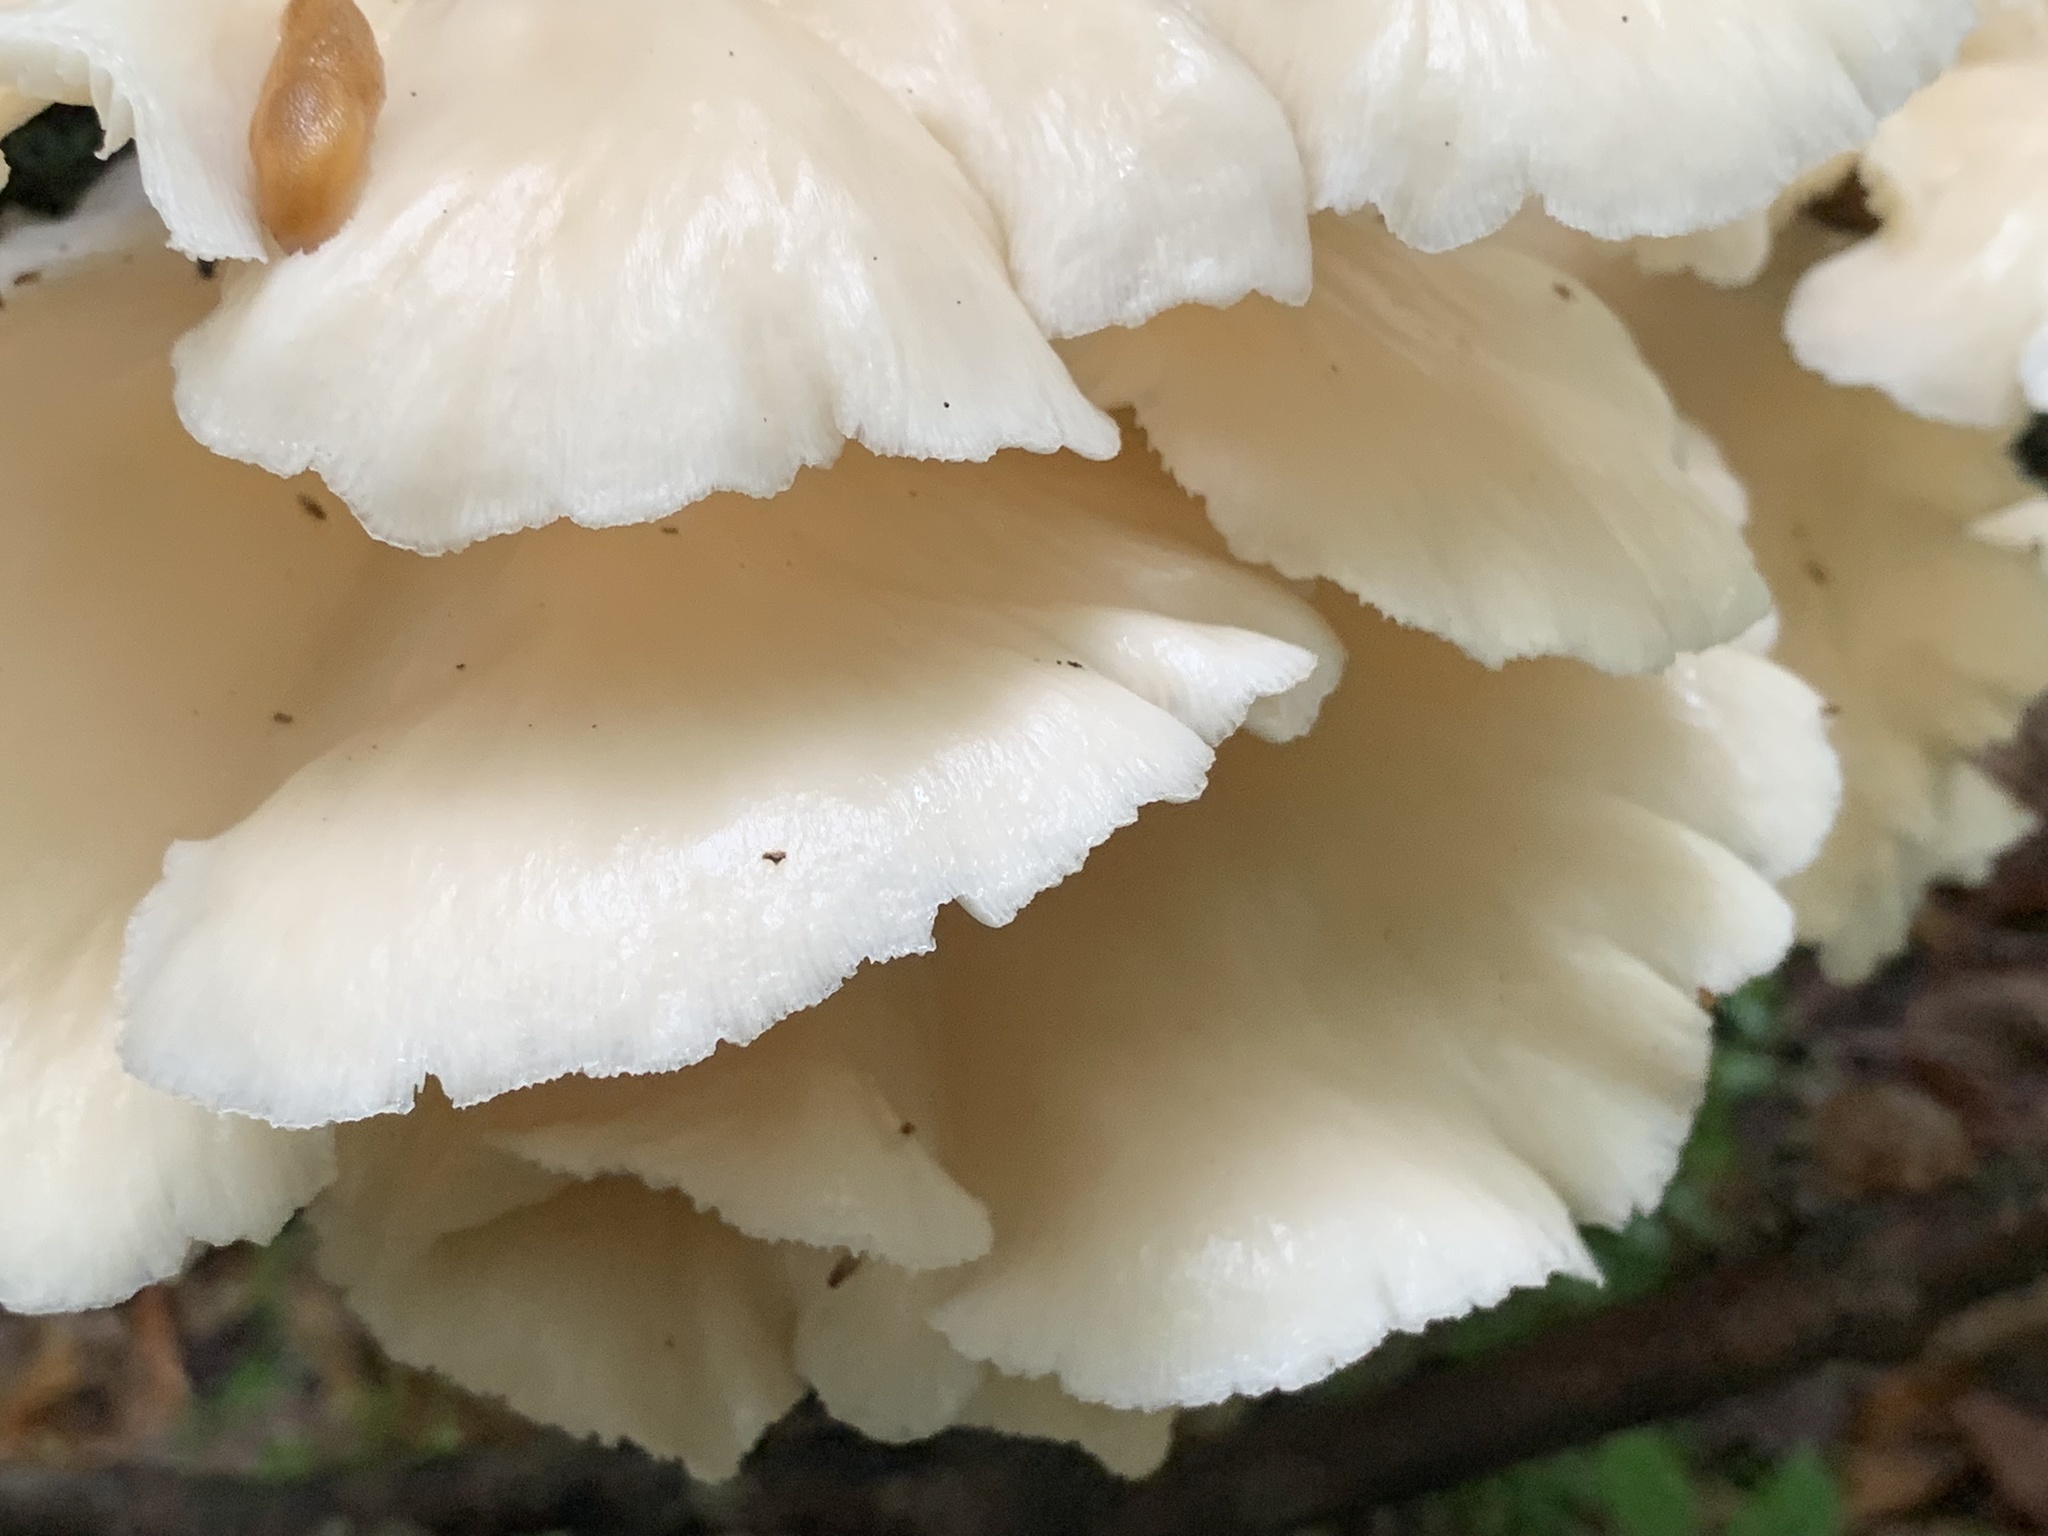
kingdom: Fungi
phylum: Basidiomycota
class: Agaricomycetes
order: Agaricales
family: Pleurotaceae
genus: Pleurotus
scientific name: Pleurotus pulmonarius
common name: Pale oyster
